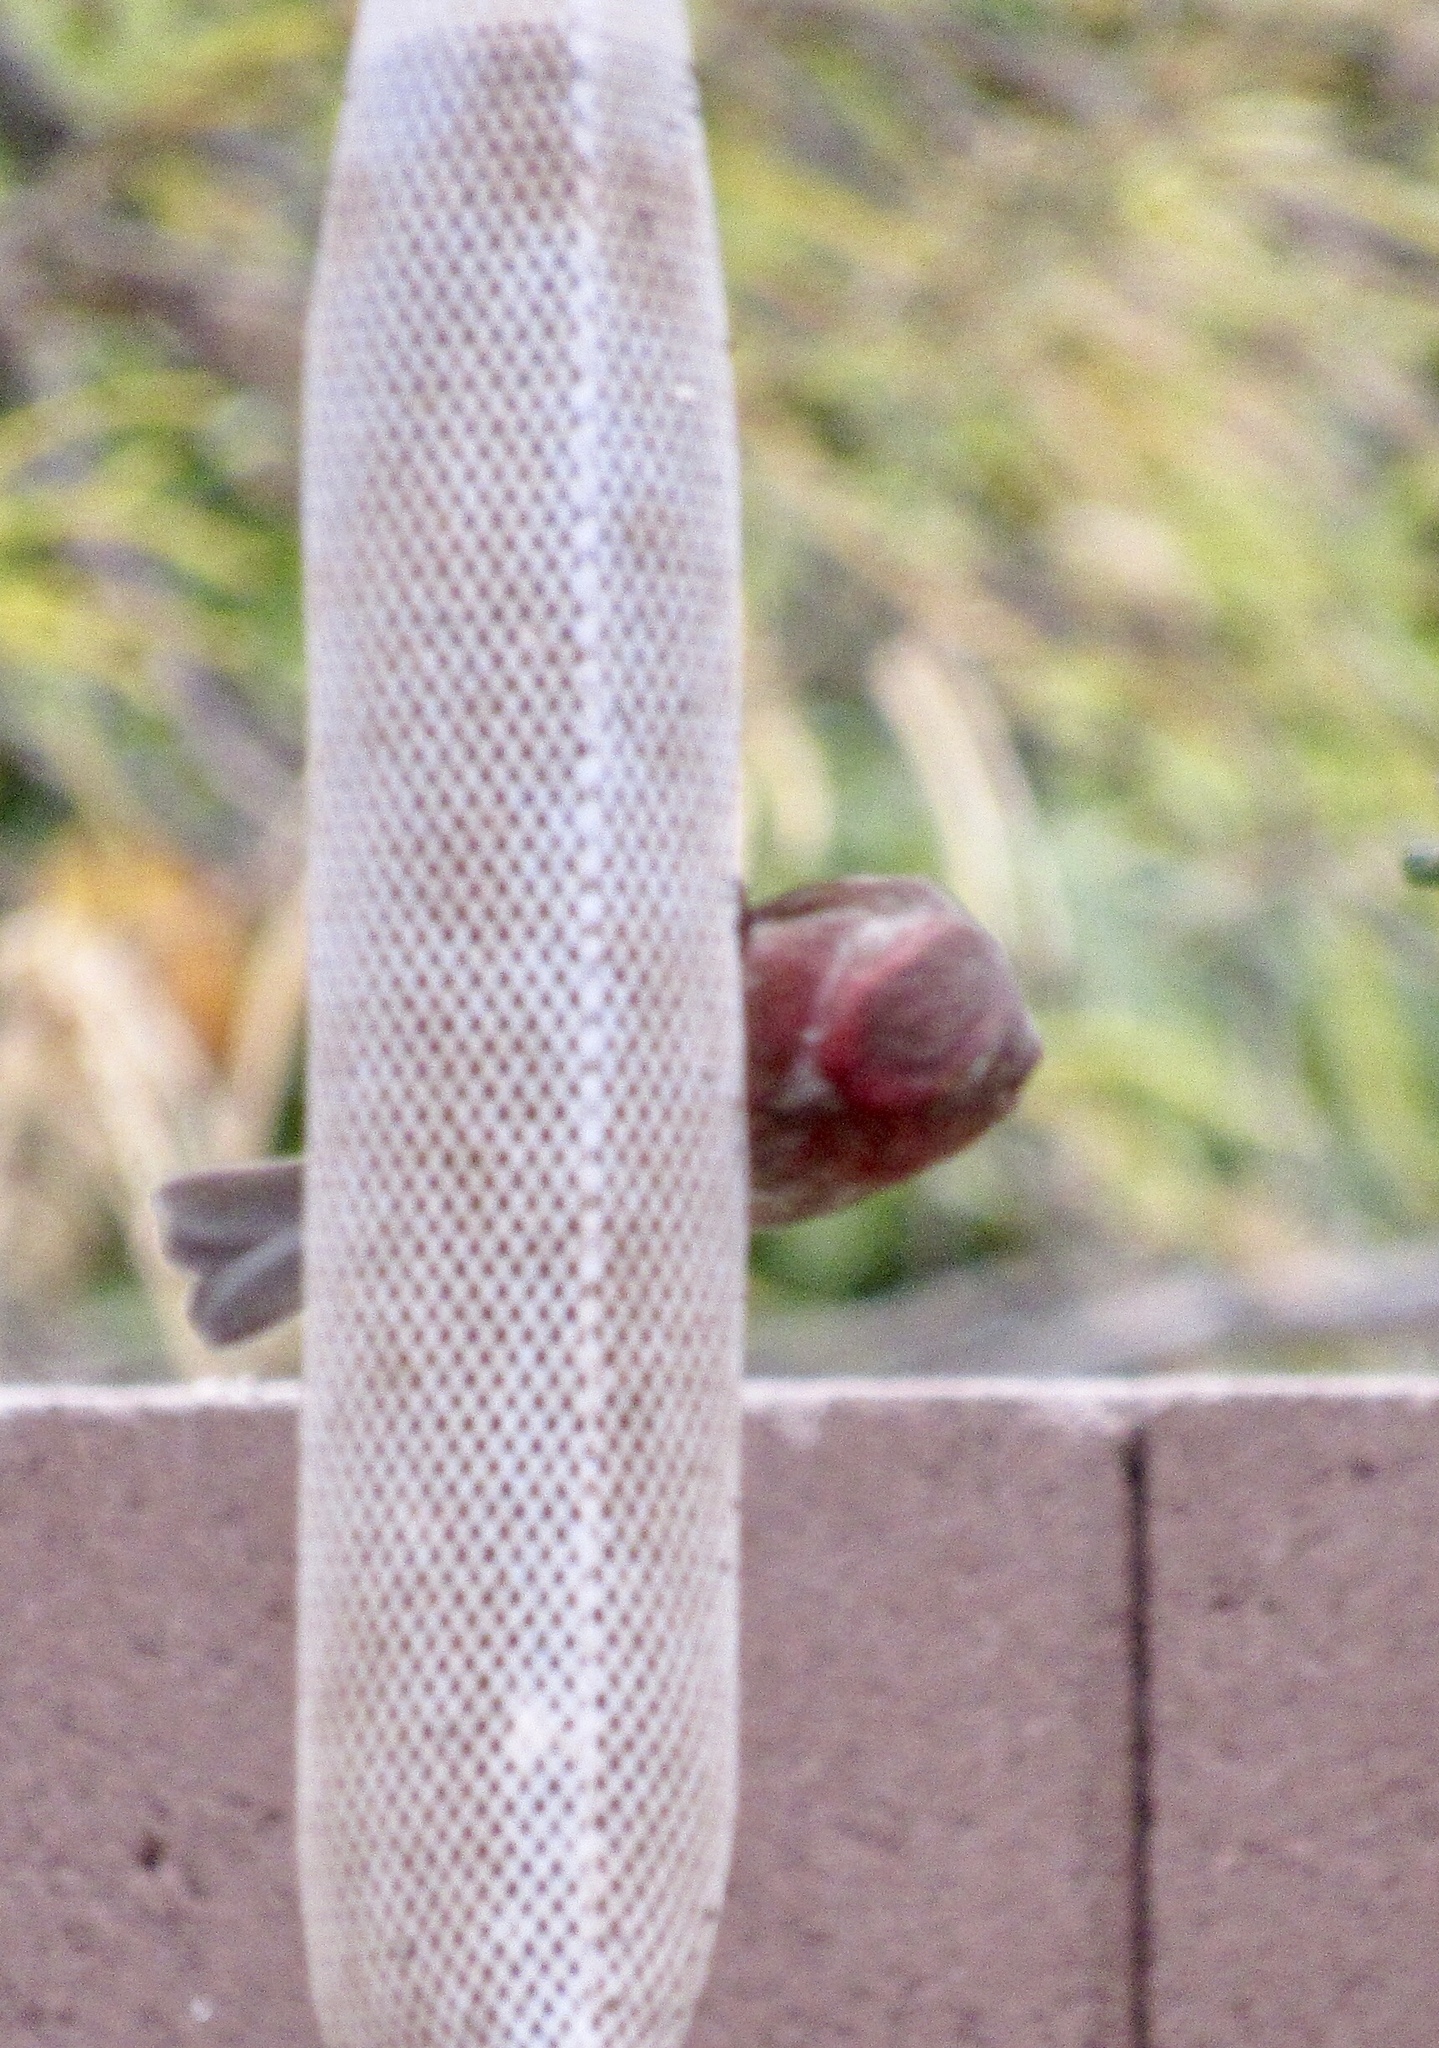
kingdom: Animalia
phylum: Chordata
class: Aves
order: Passeriformes
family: Fringillidae
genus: Haemorhous
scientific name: Haemorhous mexicanus
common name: House finch
